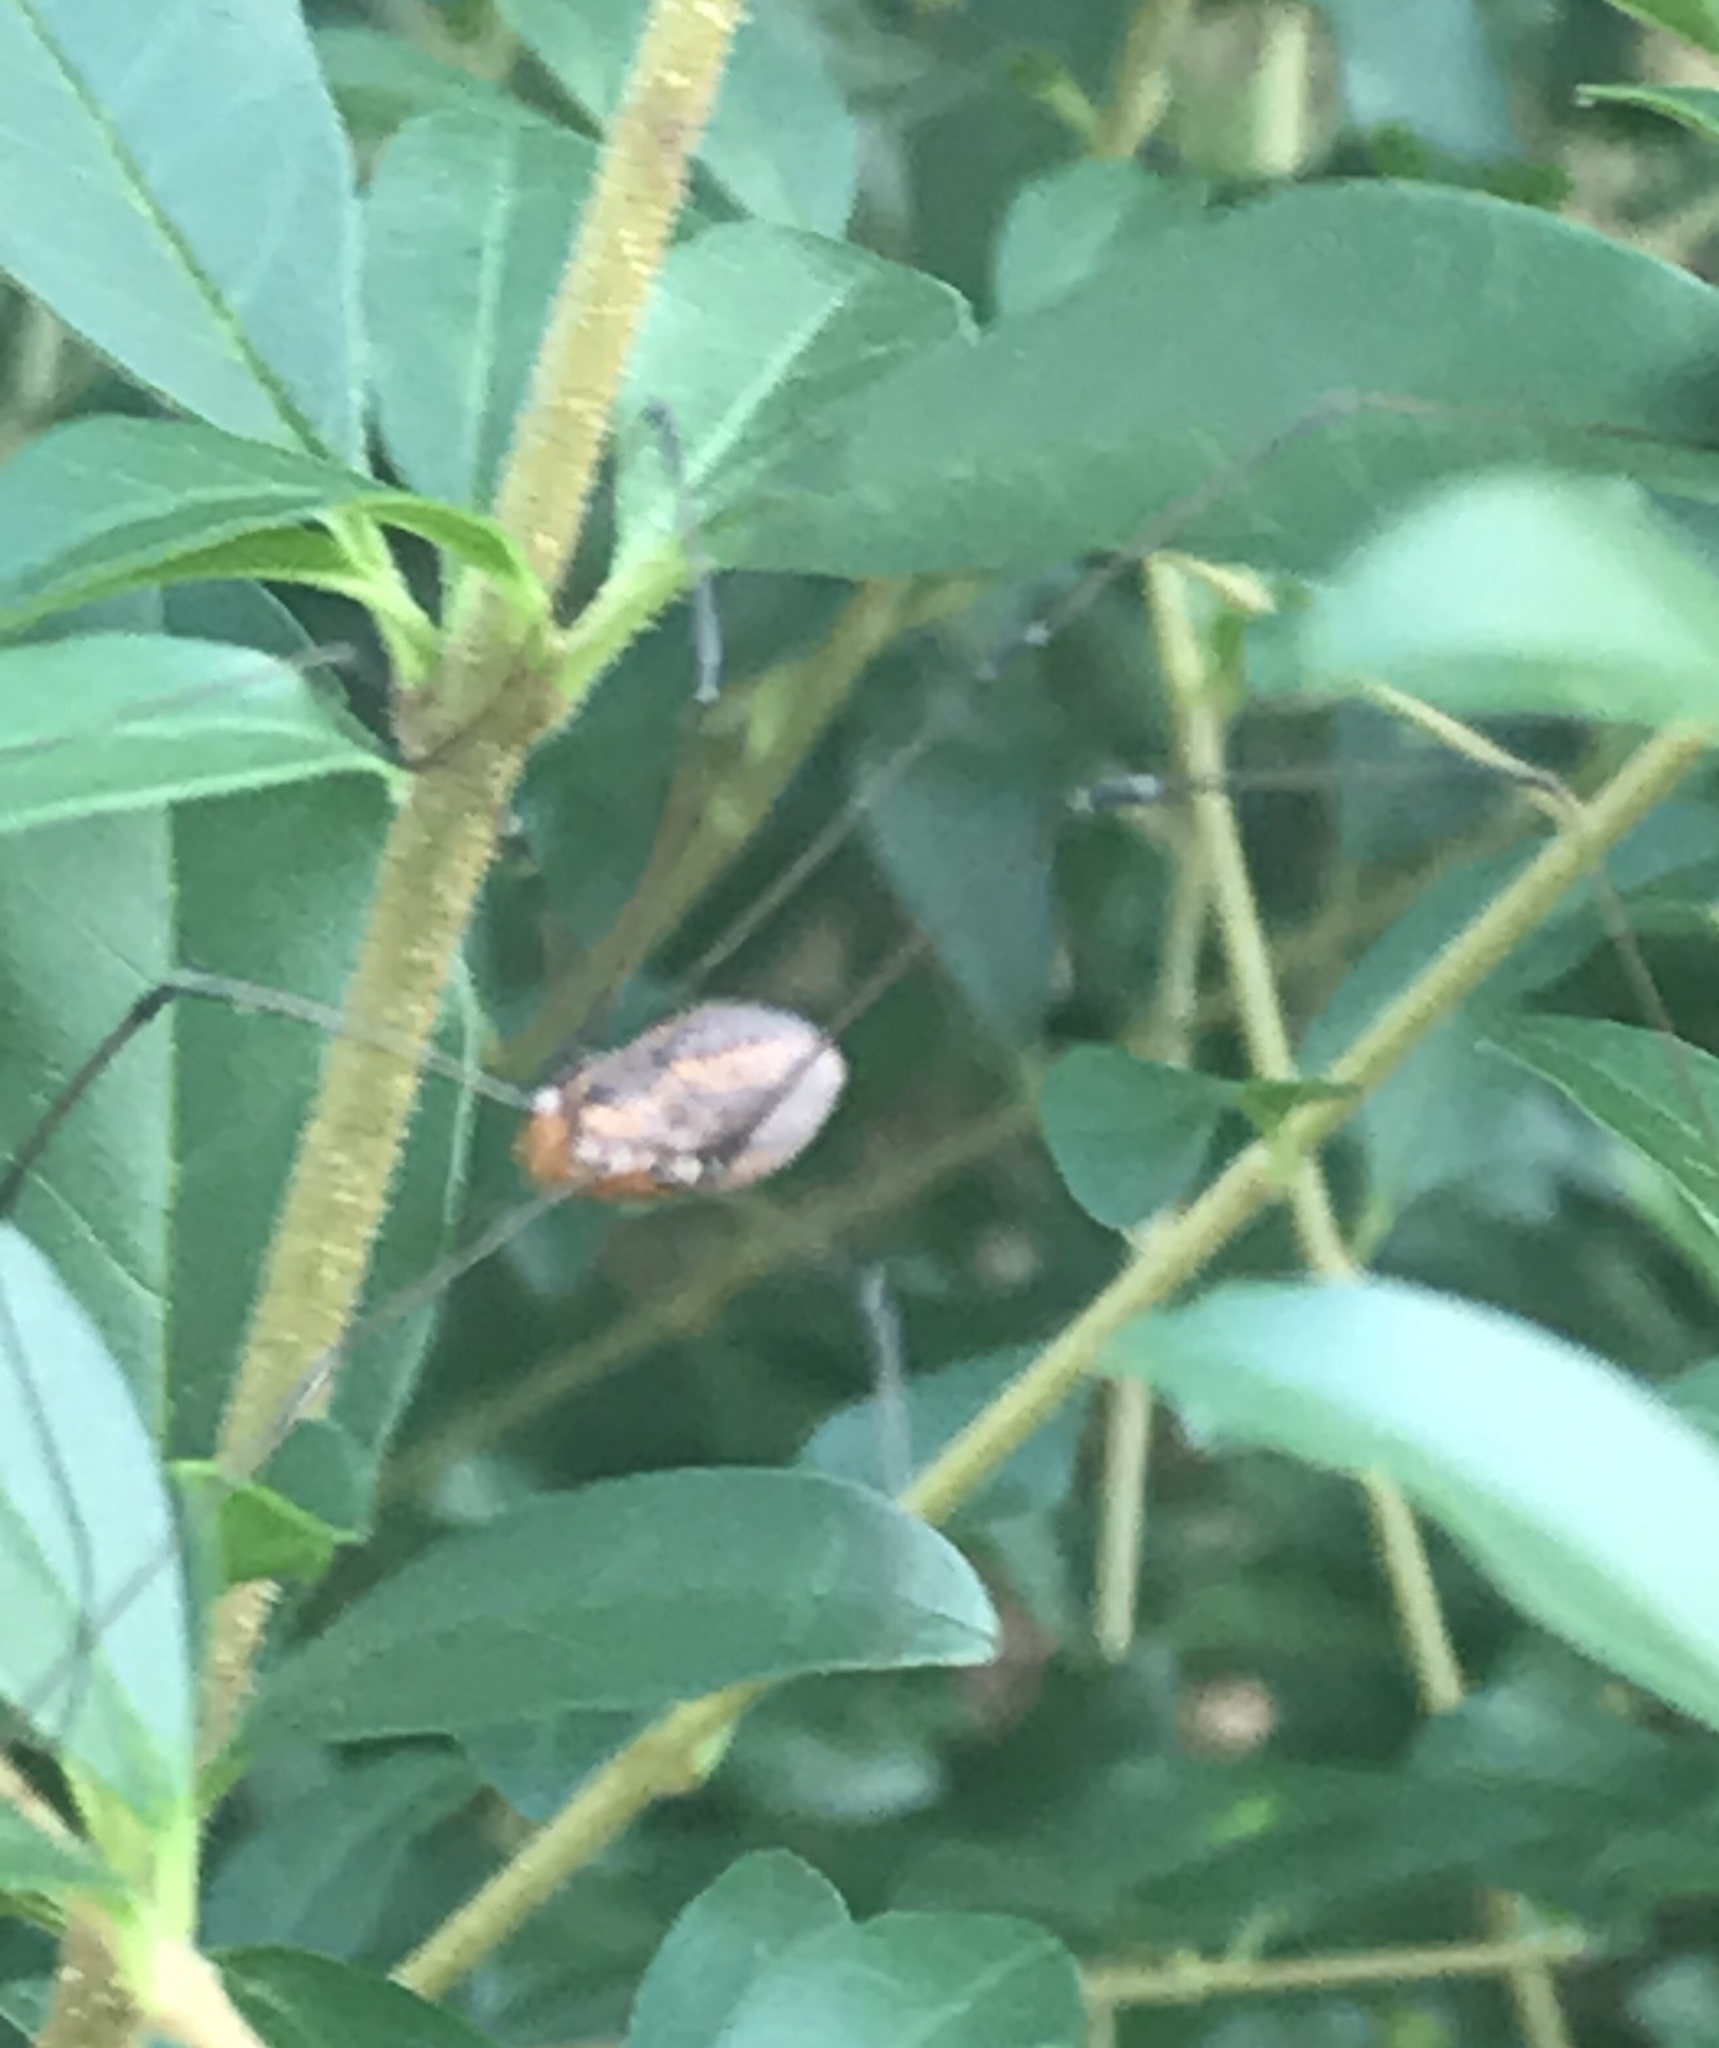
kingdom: Animalia
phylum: Arthropoda
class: Arachnida
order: Opiliones
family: Sclerosomatidae
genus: Leiobunum
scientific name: Leiobunum vittatum
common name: Eastern harvestman
